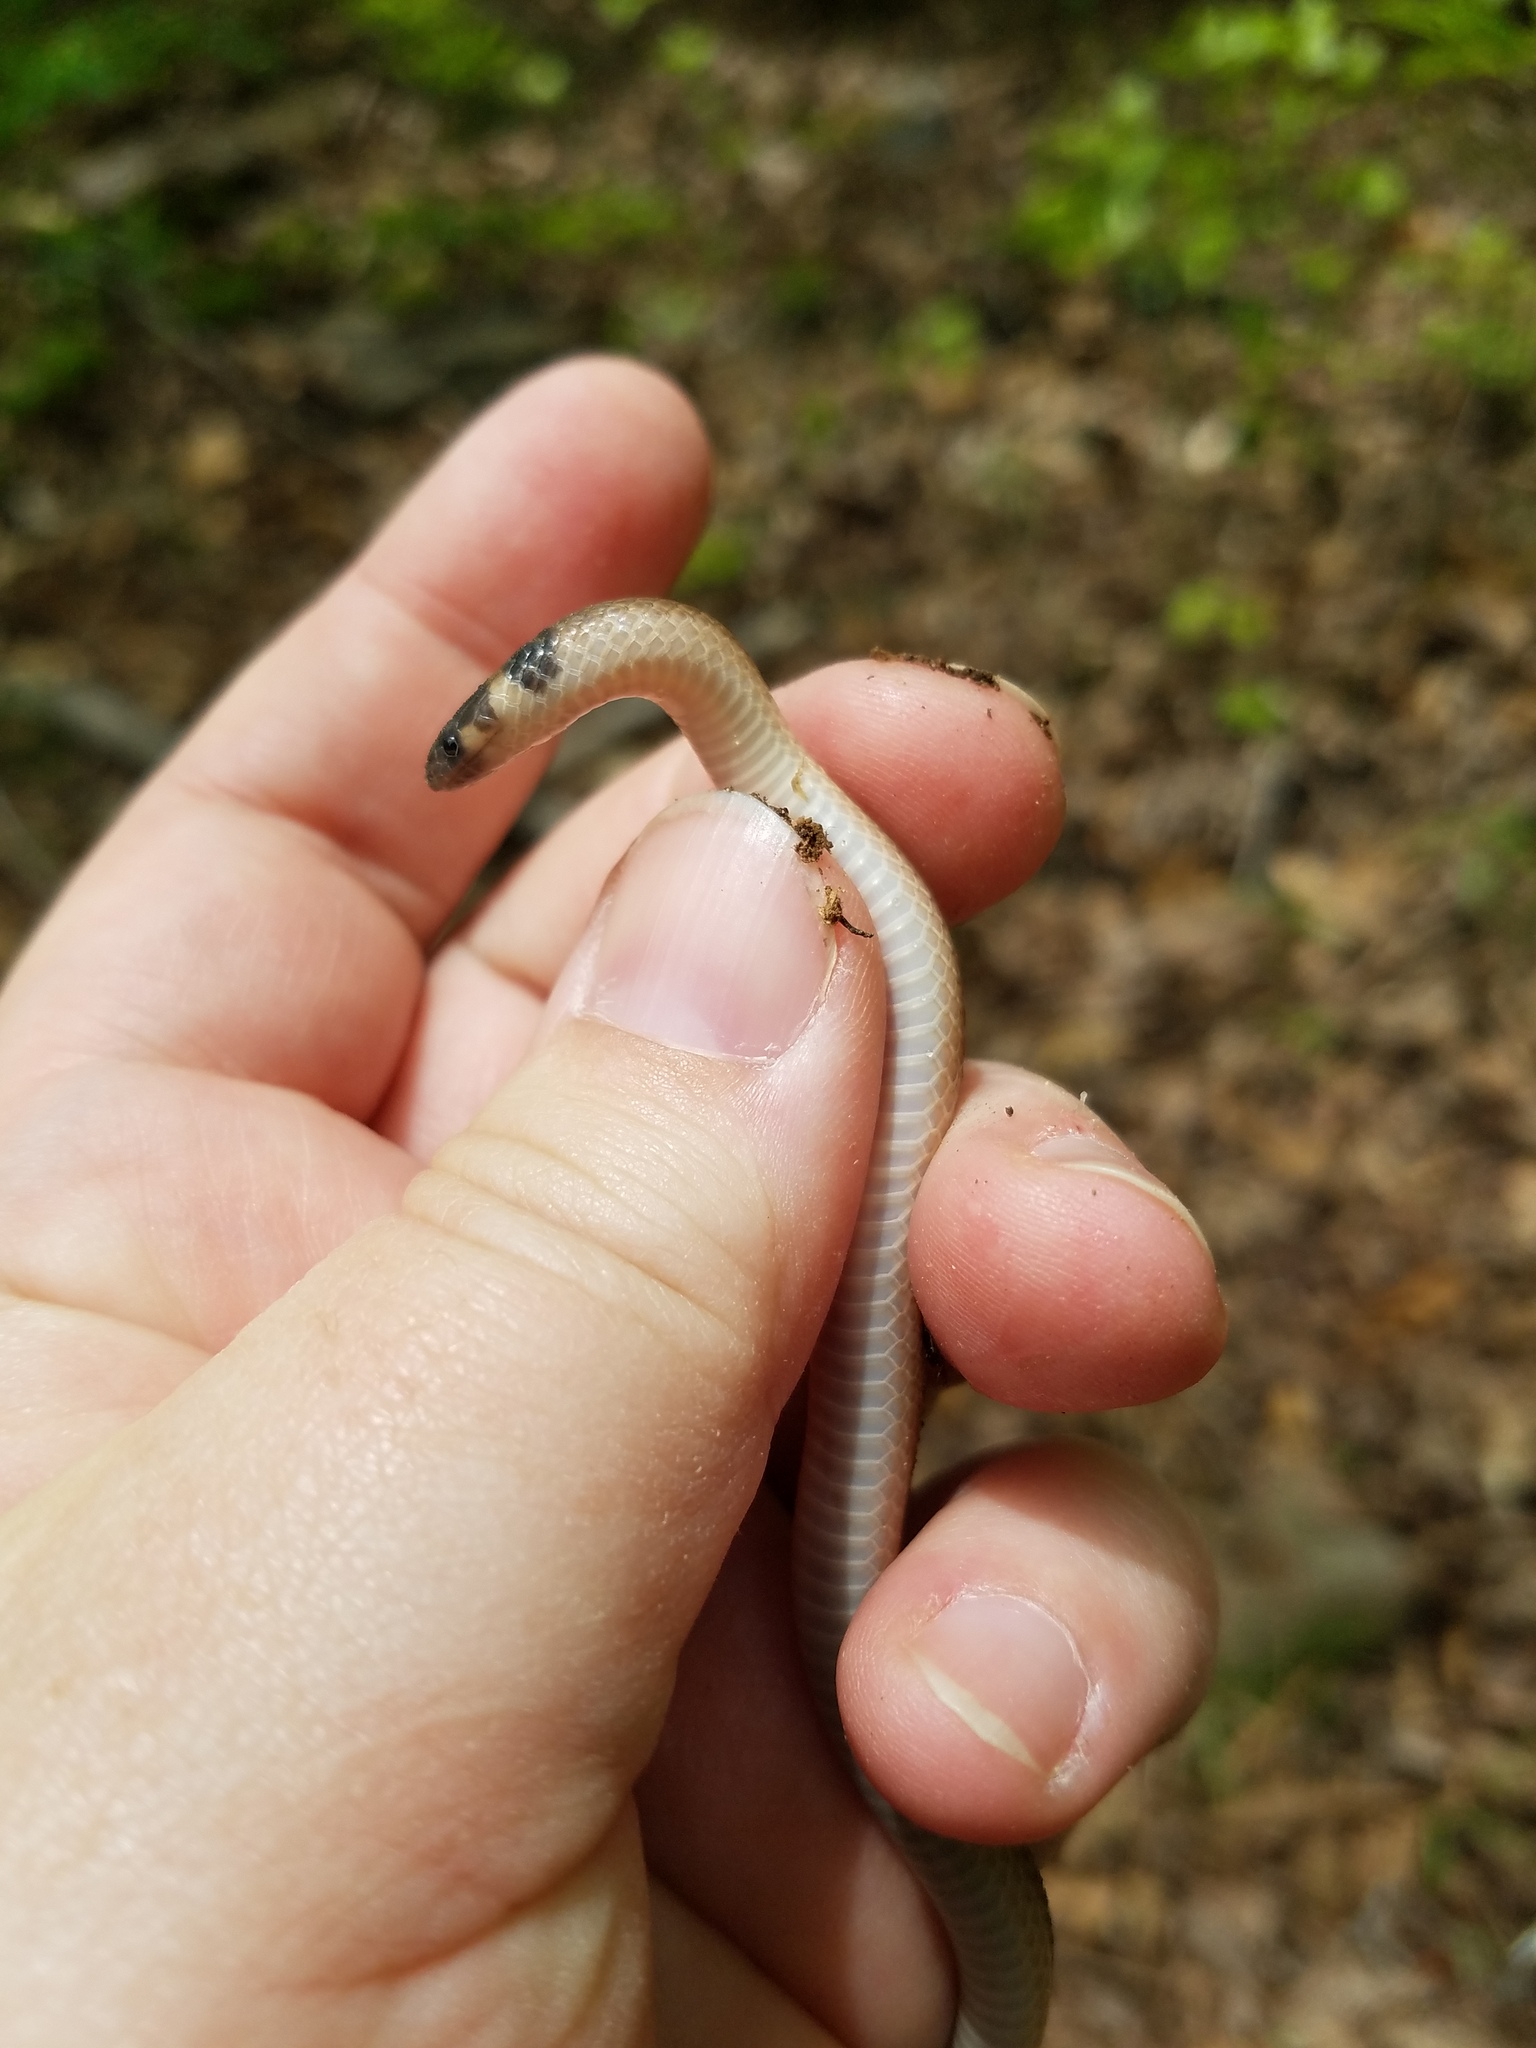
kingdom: Animalia
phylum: Chordata
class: Squamata
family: Colubridae
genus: Tantilla
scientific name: Tantilla coronata
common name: Southeastern crowned snake
